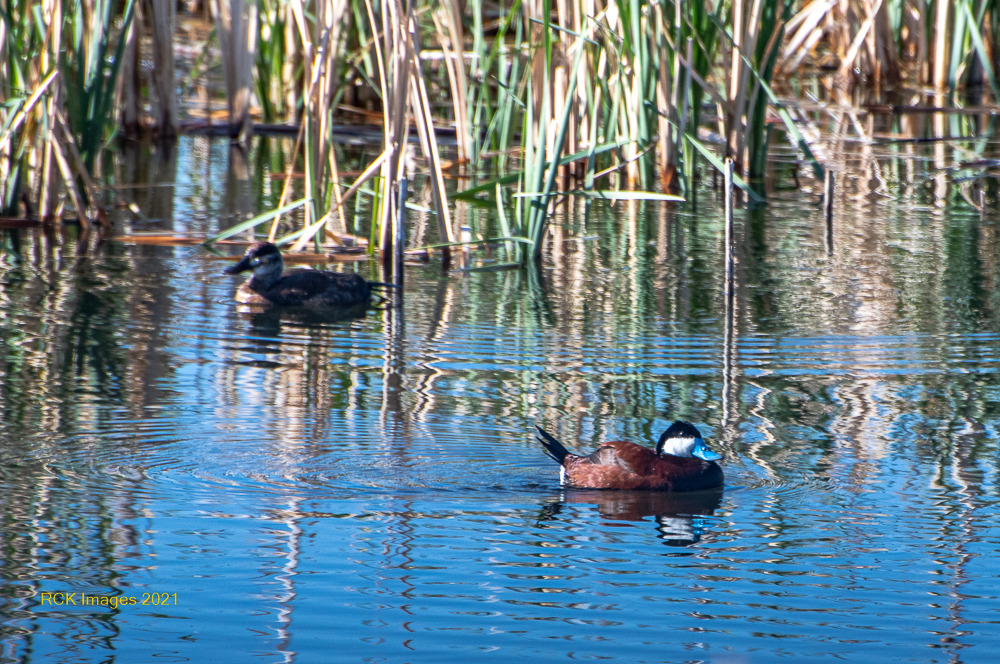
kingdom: Animalia
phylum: Chordata
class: Aves
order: Anseriformes
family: Anatidae
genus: Oxyura
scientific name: Oxyura jamaicensis
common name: Ruddy duck
